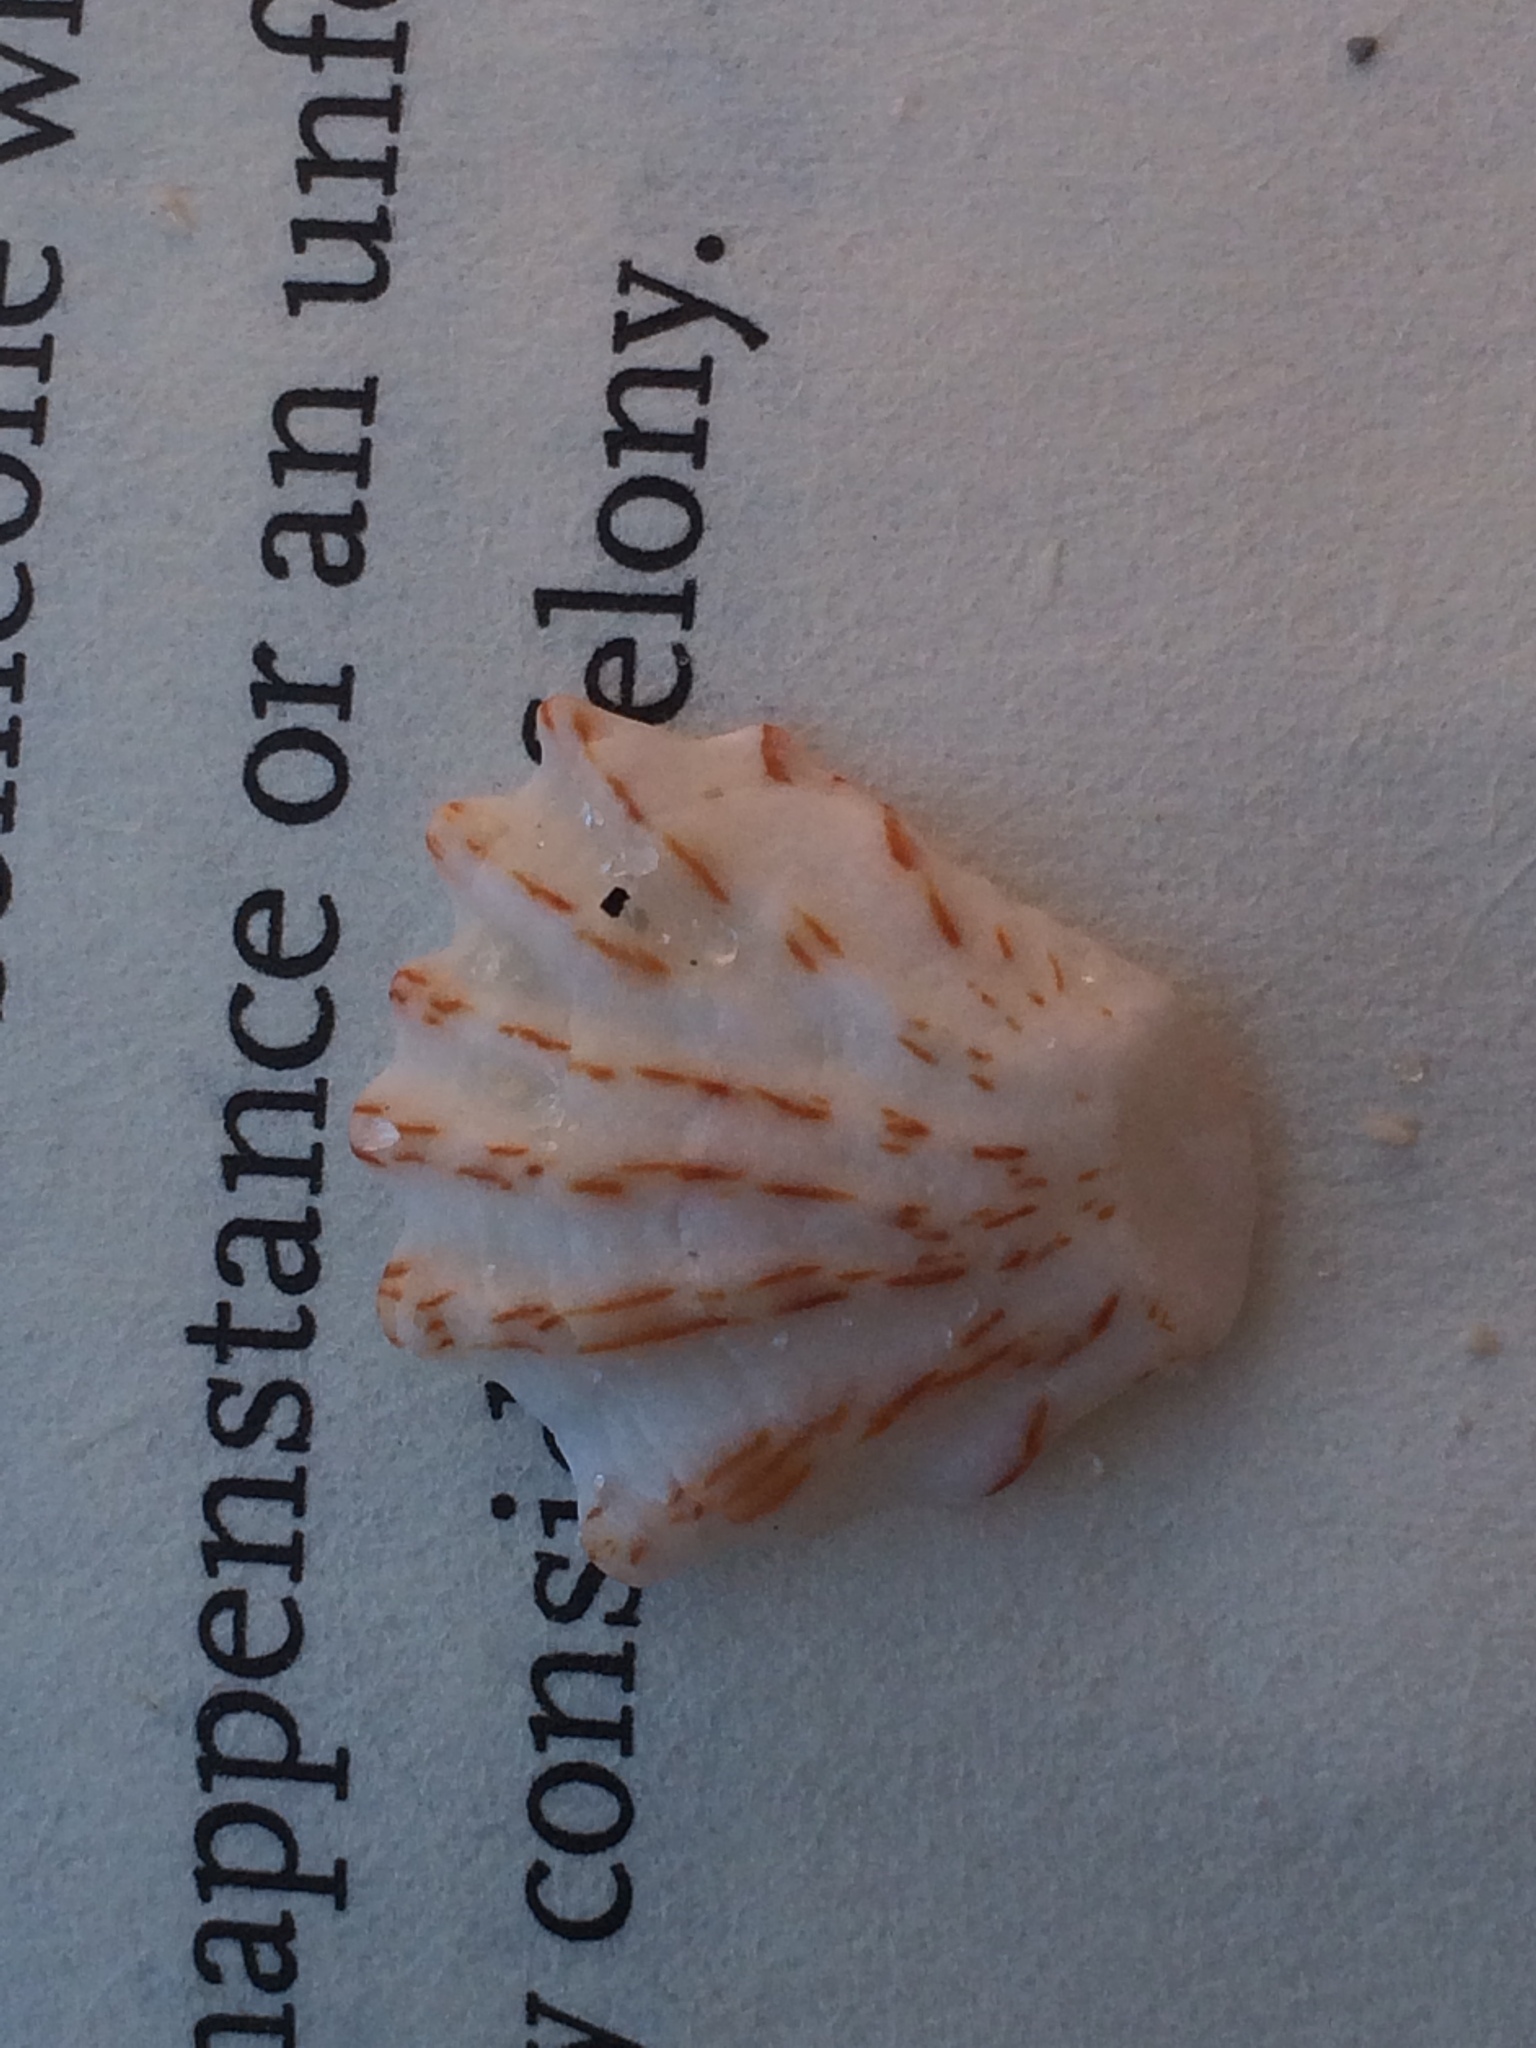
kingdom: Animalia
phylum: Mollusca
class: Bivalvia
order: Pectinida
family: Plicatulidae
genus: Plicatula
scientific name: Plicatula gibbosa
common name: Atlantic kitten's paw
